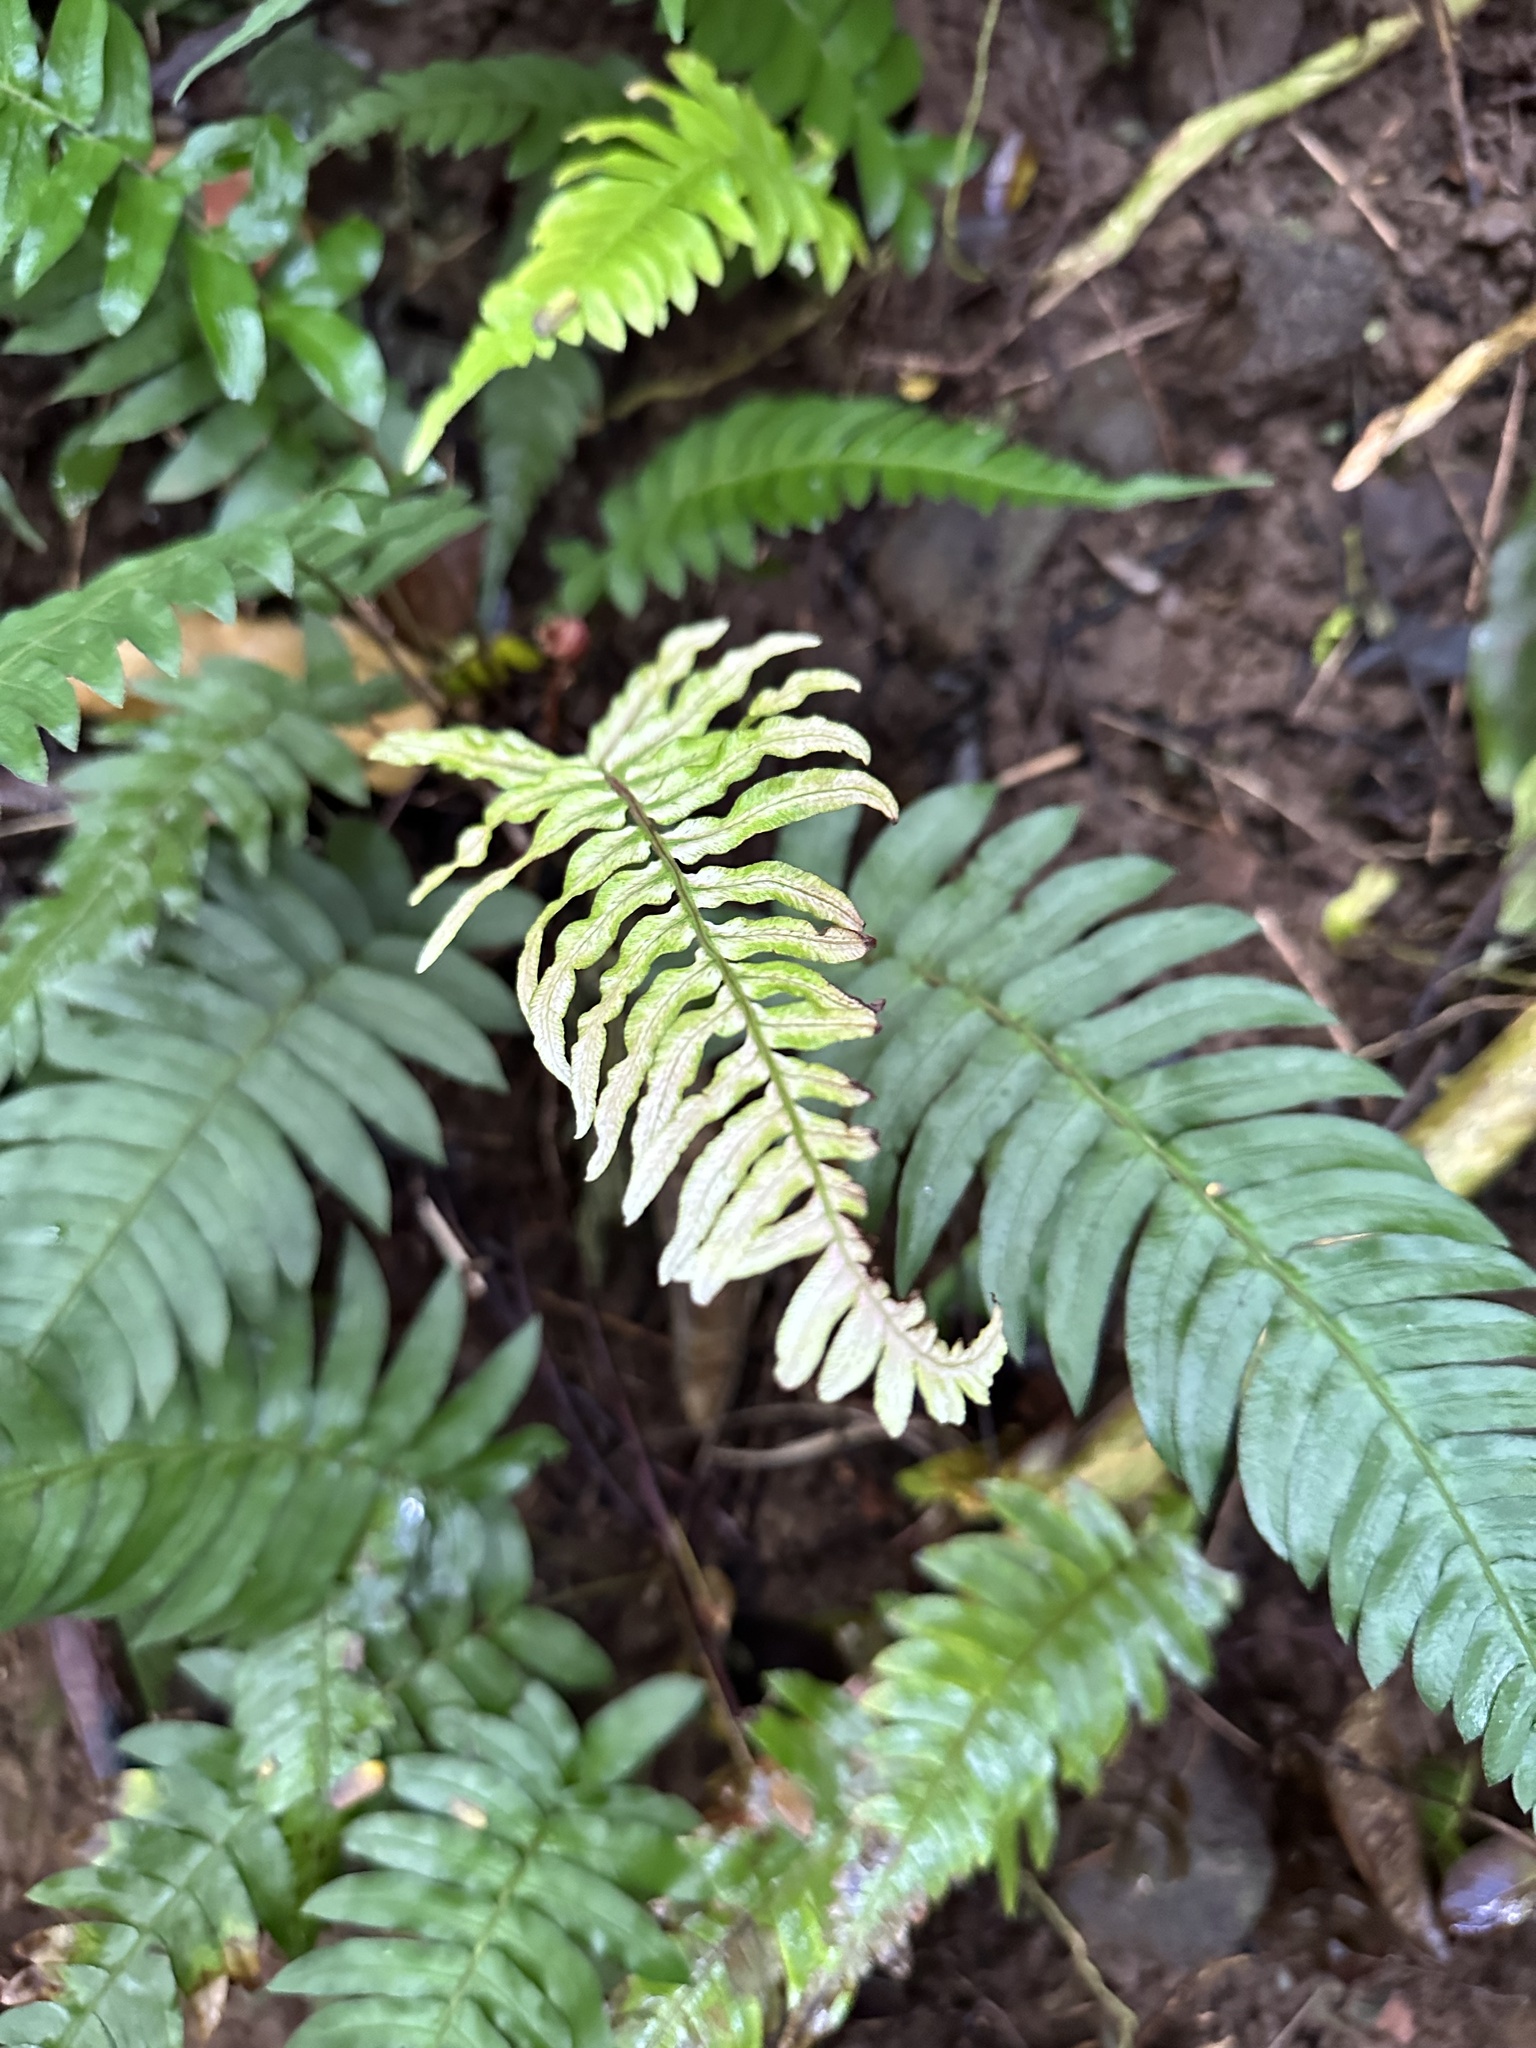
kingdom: Plantae
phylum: Tracheophyta
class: Polypodiopsida
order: Polypodiales
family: Blechnaceae
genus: Blechnum
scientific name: Blechnum appendiculatum
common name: Palm fern
